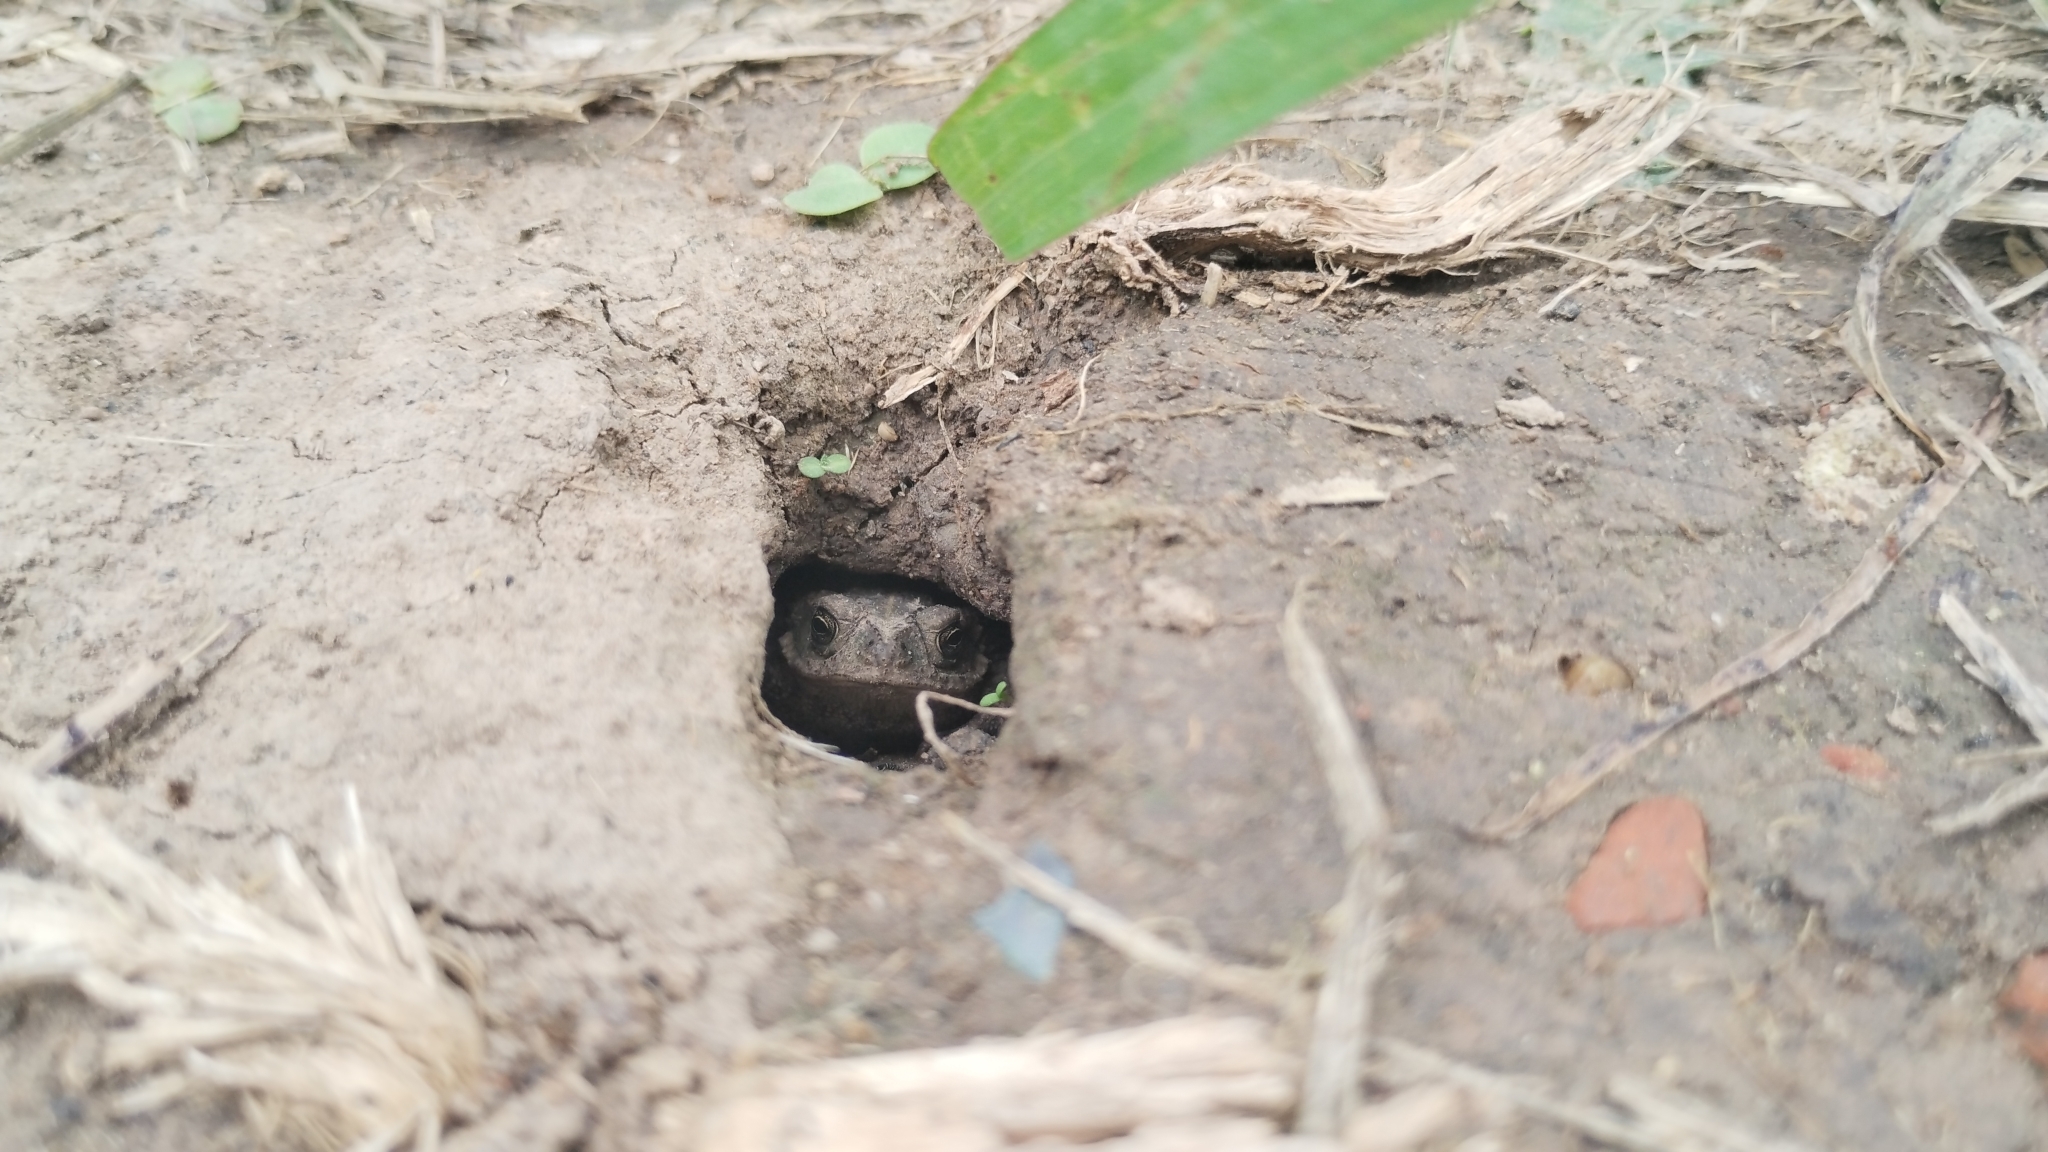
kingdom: Animalia
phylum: Chordata
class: Amphibia
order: Anura
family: Bufonidae
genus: Rhinella
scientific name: Rhinella dorbignyi
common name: D´orbigny’s toad
